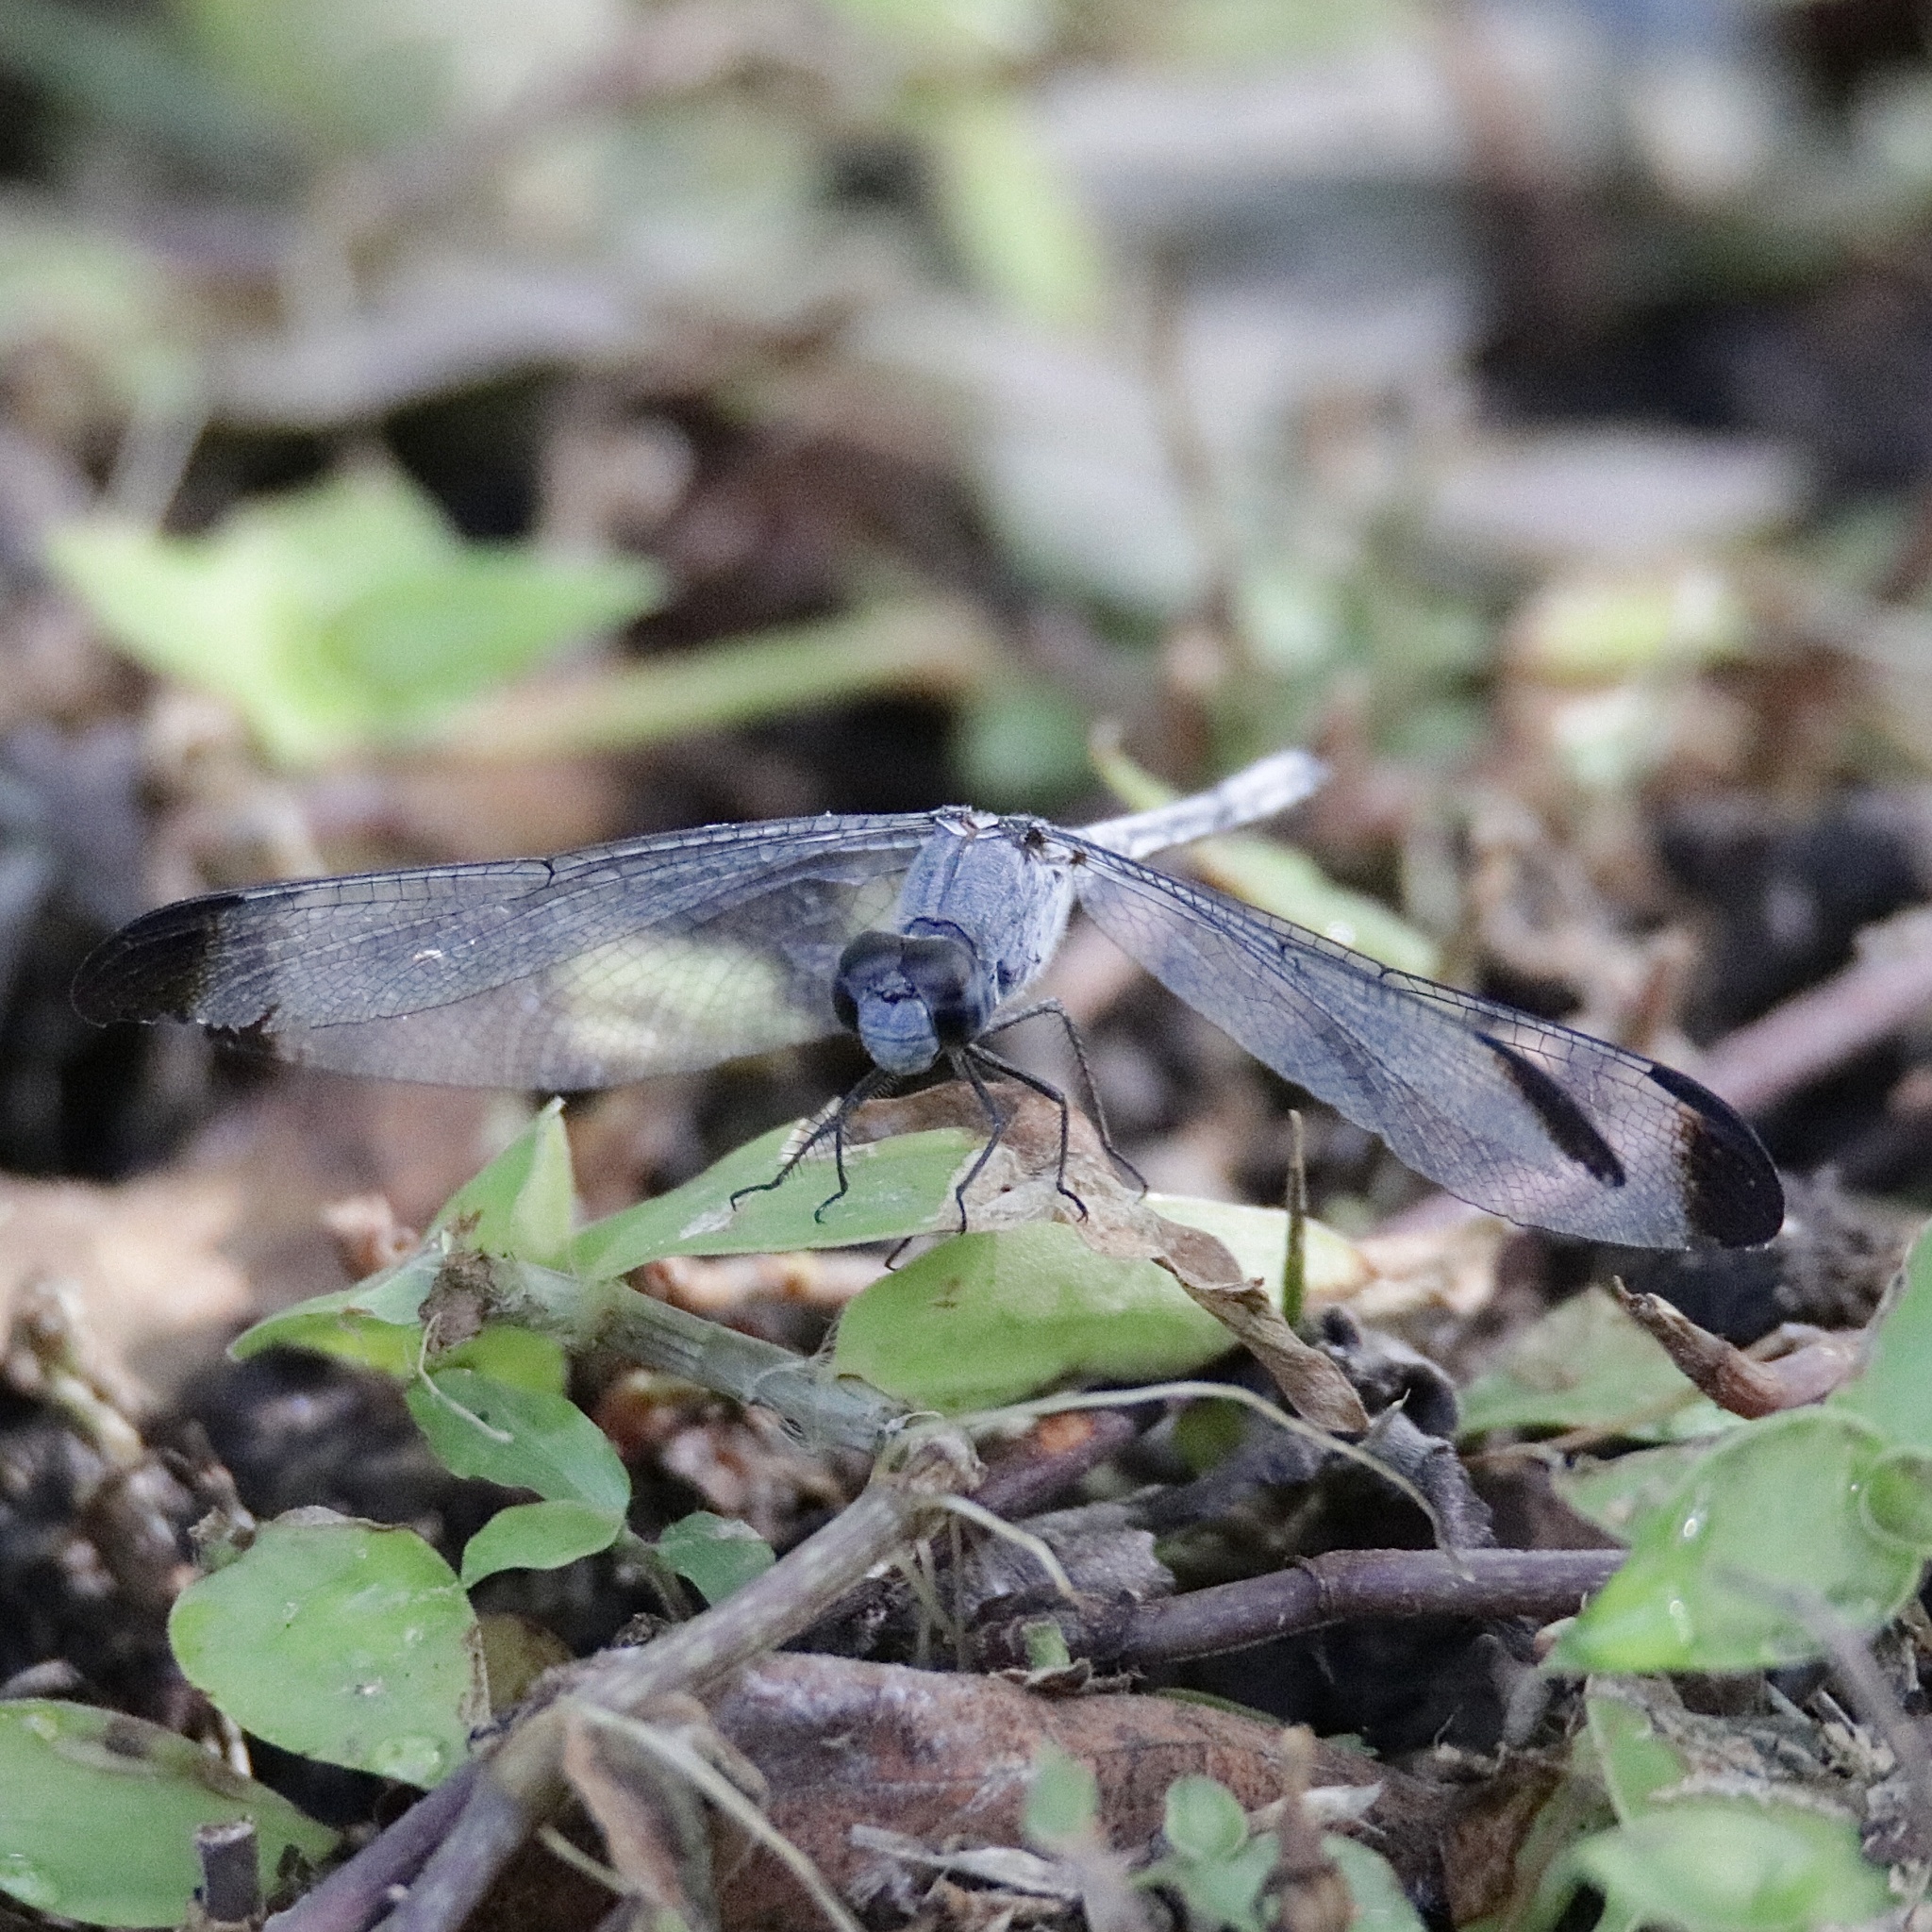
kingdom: Animalia
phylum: Arthropoda
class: Insecta
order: Odonata
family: Libellulidae
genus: Uracis
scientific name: Uracis imbuta
